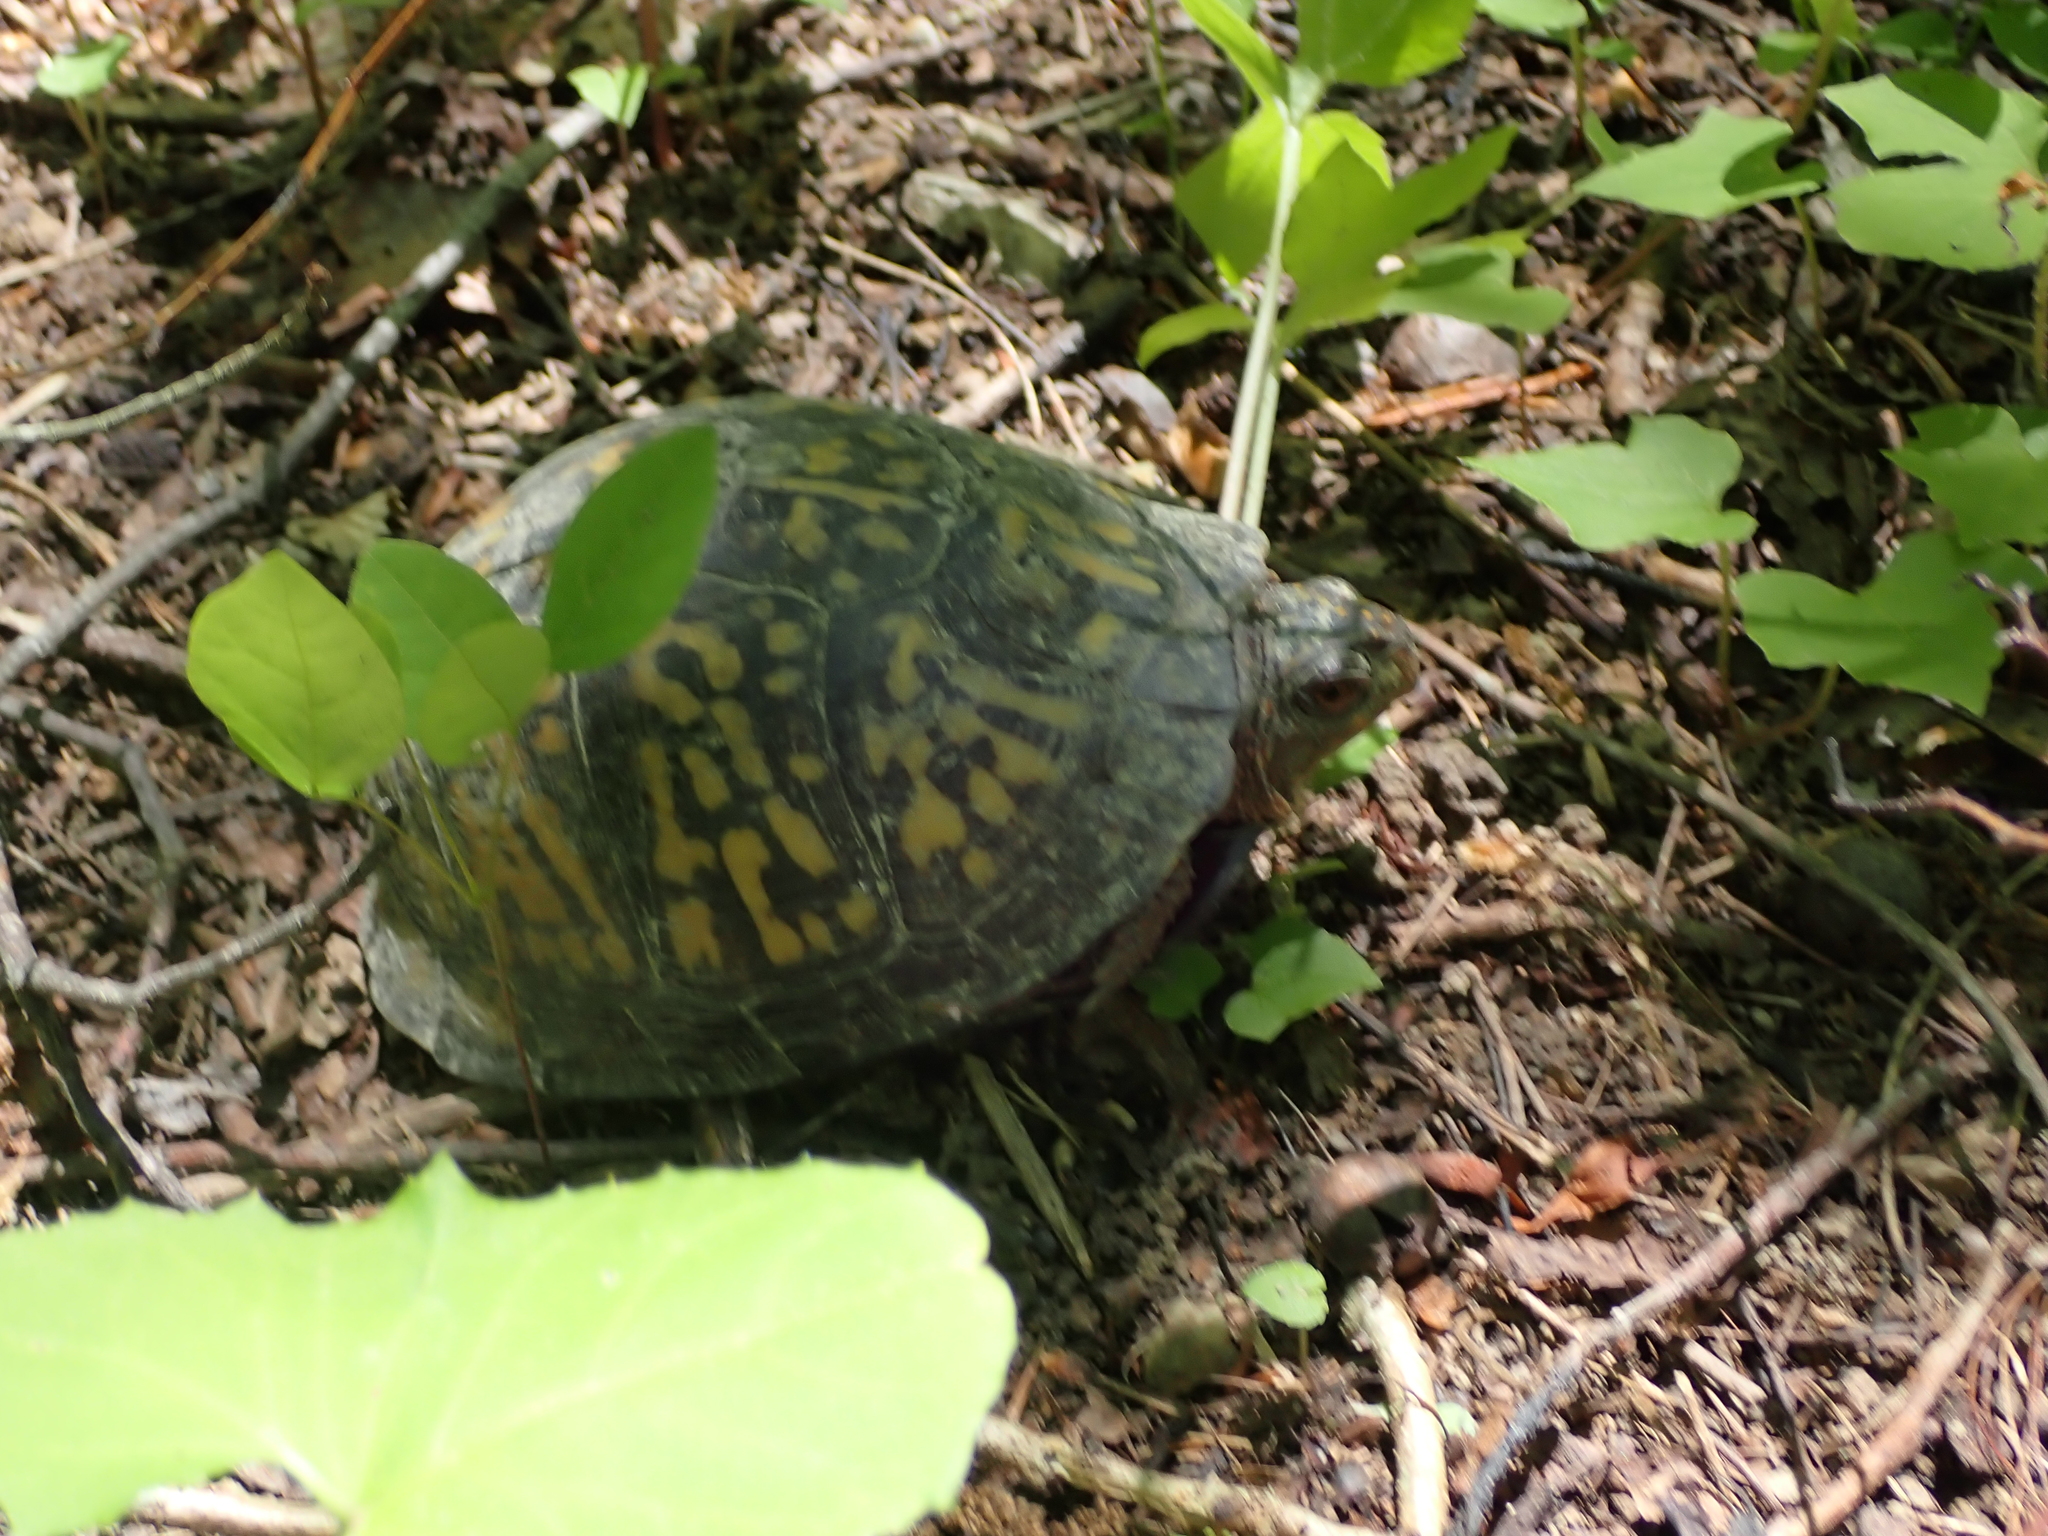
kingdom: Animalia
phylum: Chordata
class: Testudines
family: Emydidae
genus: Terrapene
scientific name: Terrapene carolina
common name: Common box turtle
